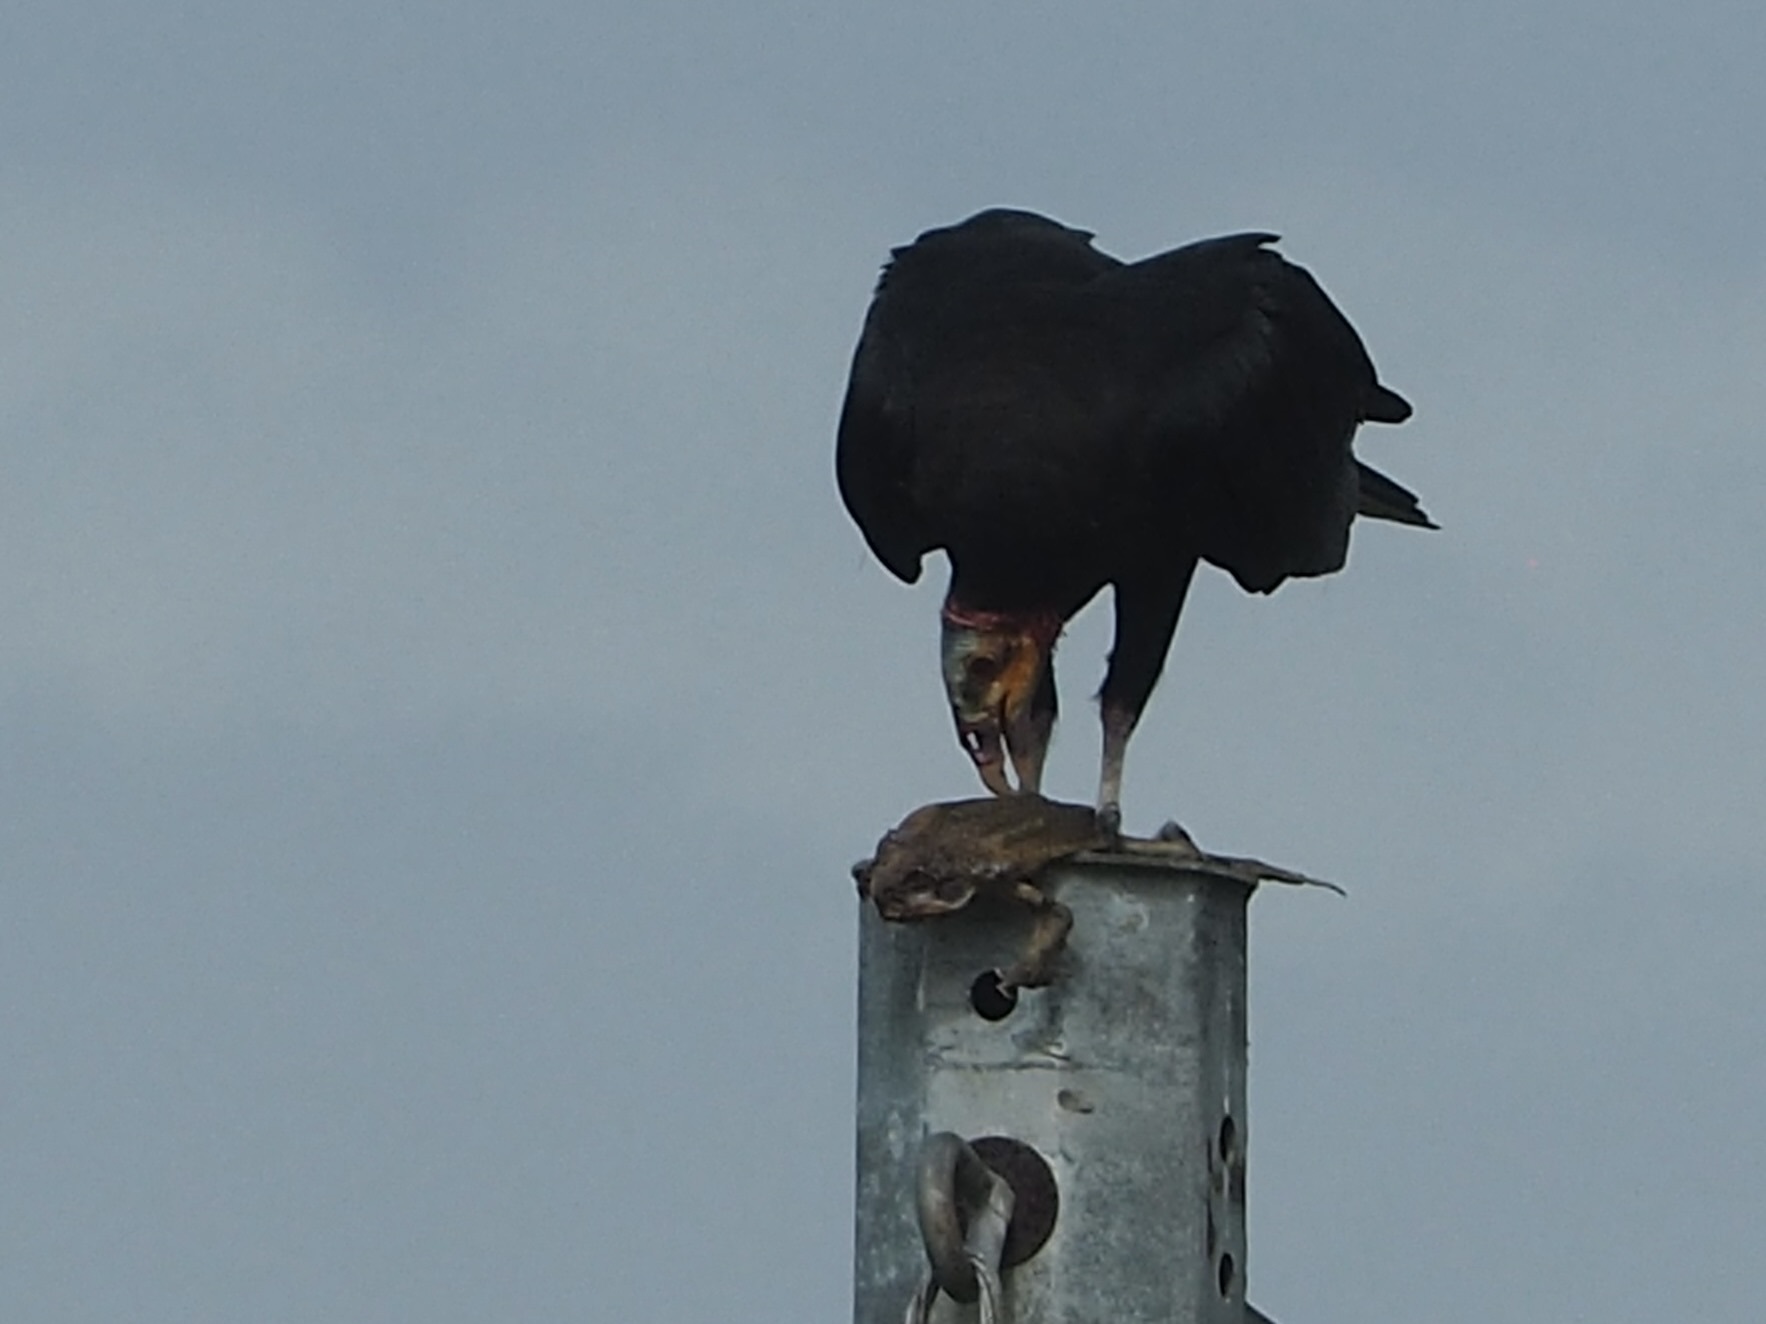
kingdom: Animalia
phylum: Chordata
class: Aves
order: Accipitriformes
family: Cathartidae
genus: Cathartes
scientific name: Cathartes burrovianus
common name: Lesser yellow-headed vulture
